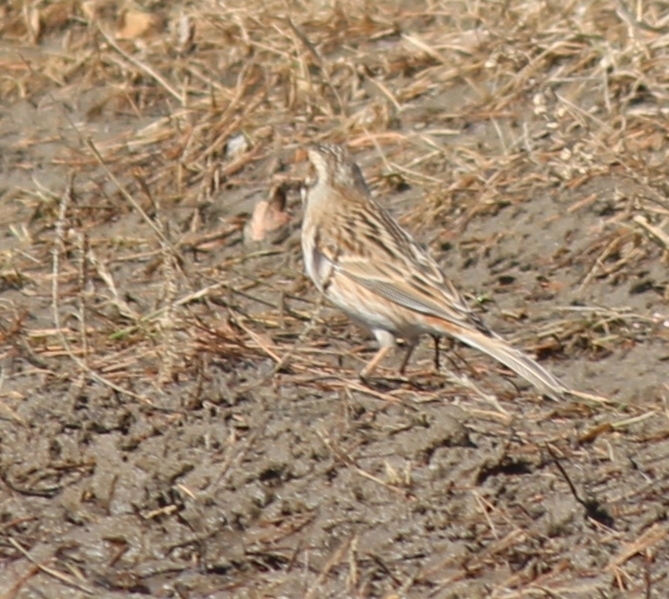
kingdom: Animalia
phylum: Chordata
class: Aves
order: Passeriformes
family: Emberizidae
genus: Emberiza
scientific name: Emberiza
